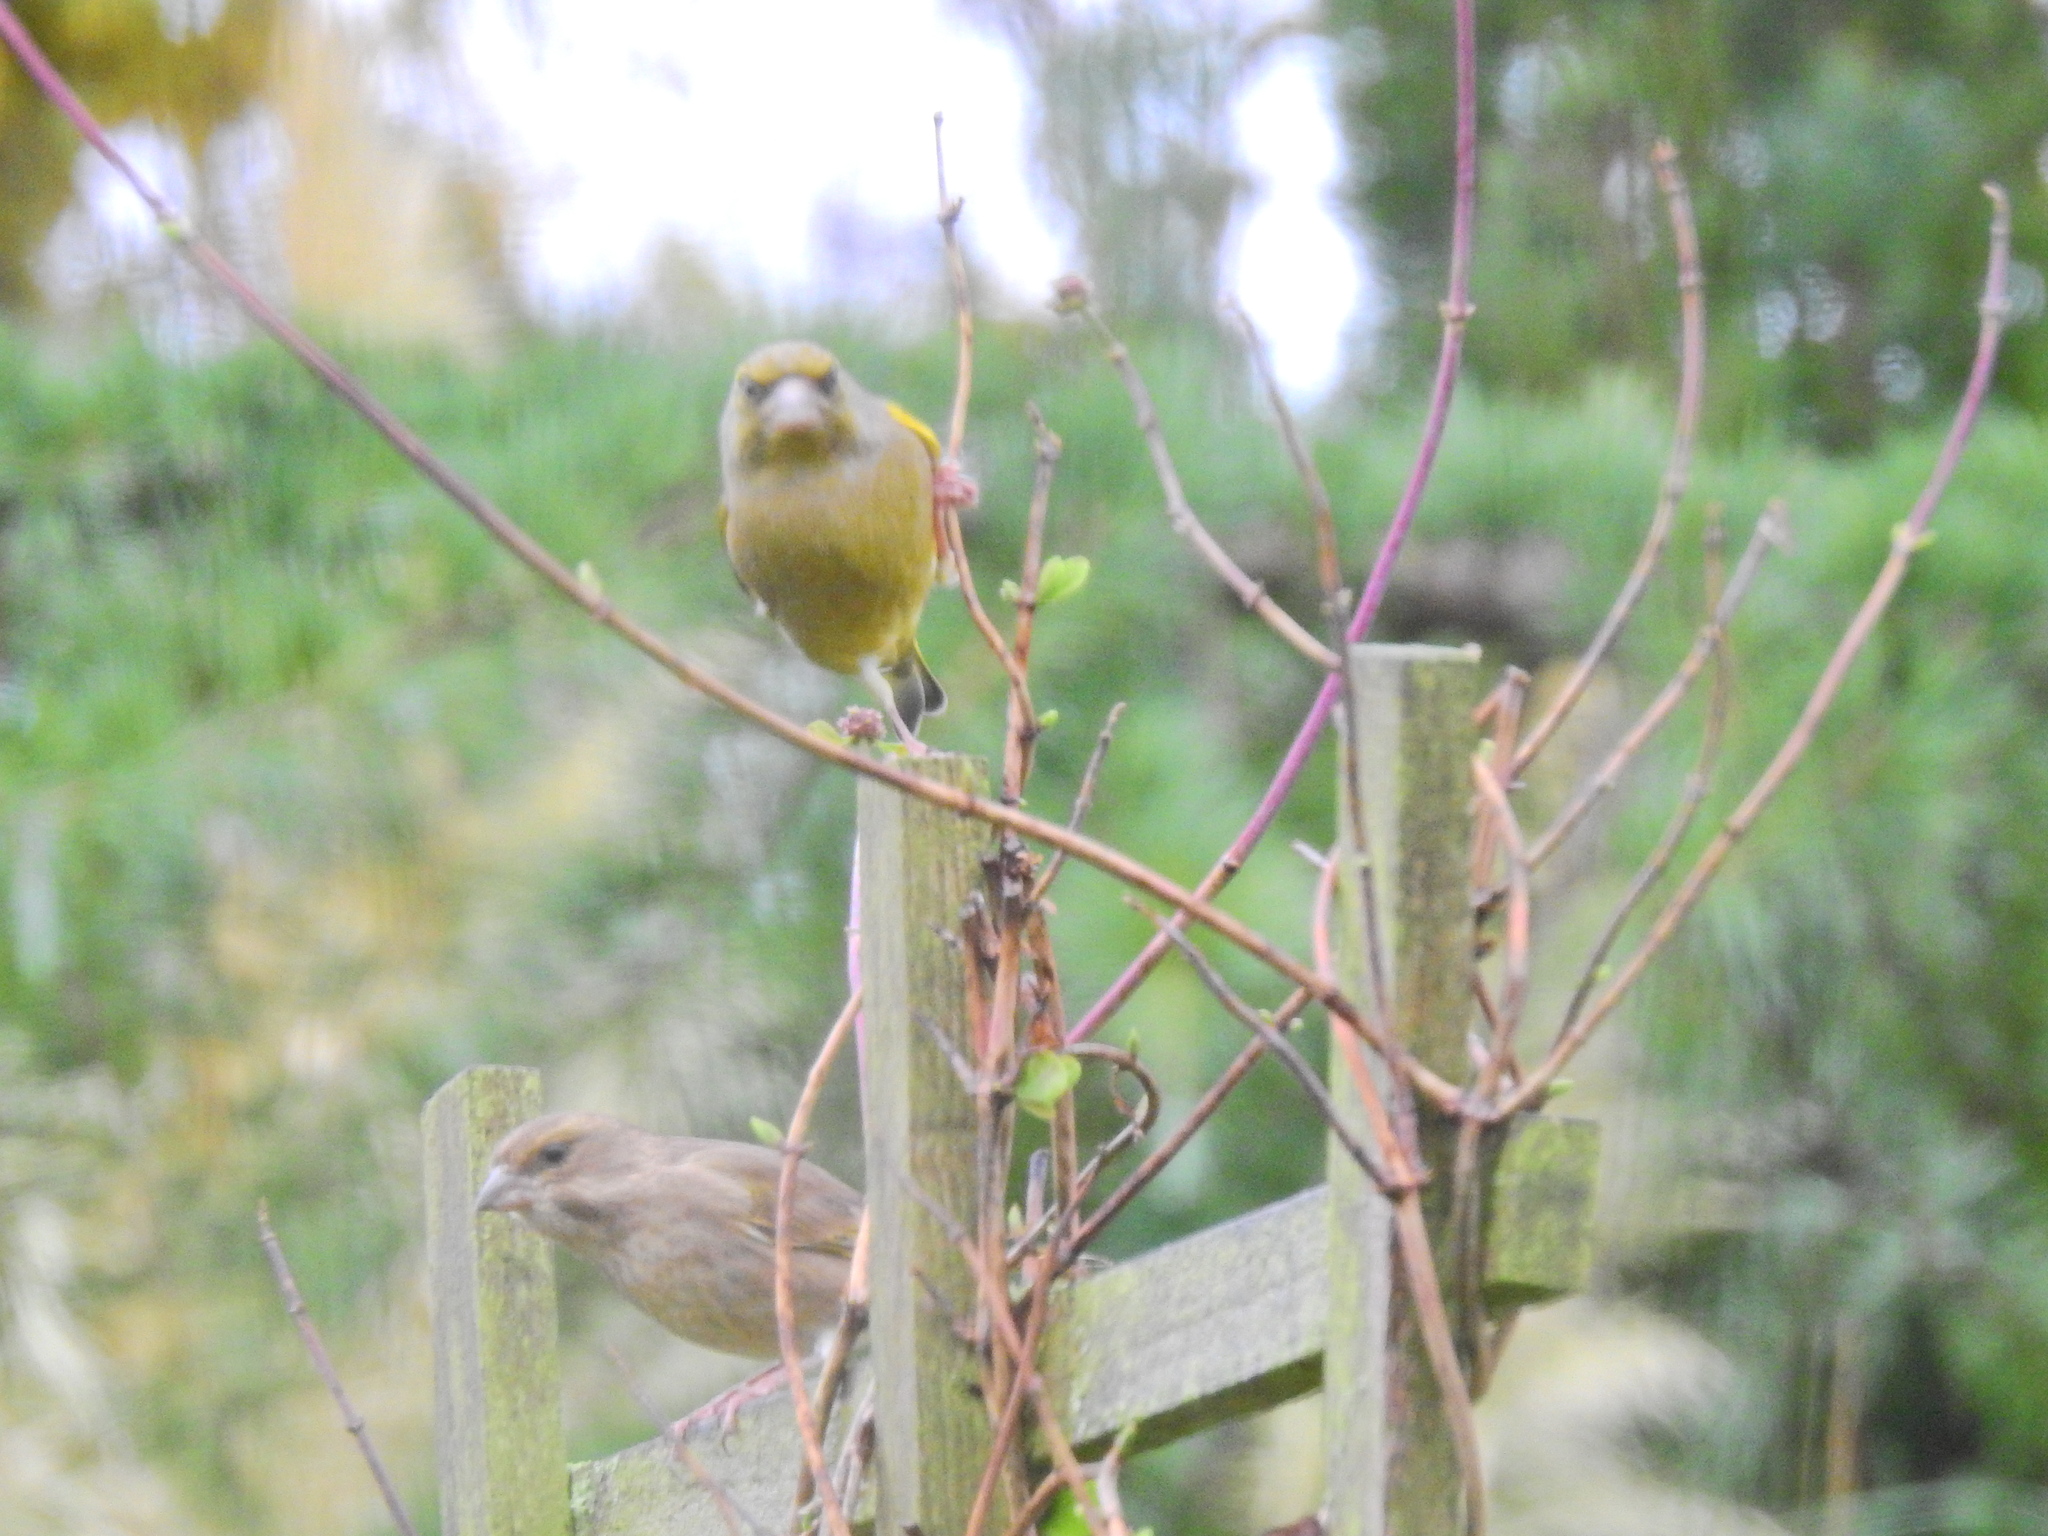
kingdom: Plantae
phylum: Tracheophyta
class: Liliopsida
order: Poales
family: Poaceae
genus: Chloris
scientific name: Chloris chloris
